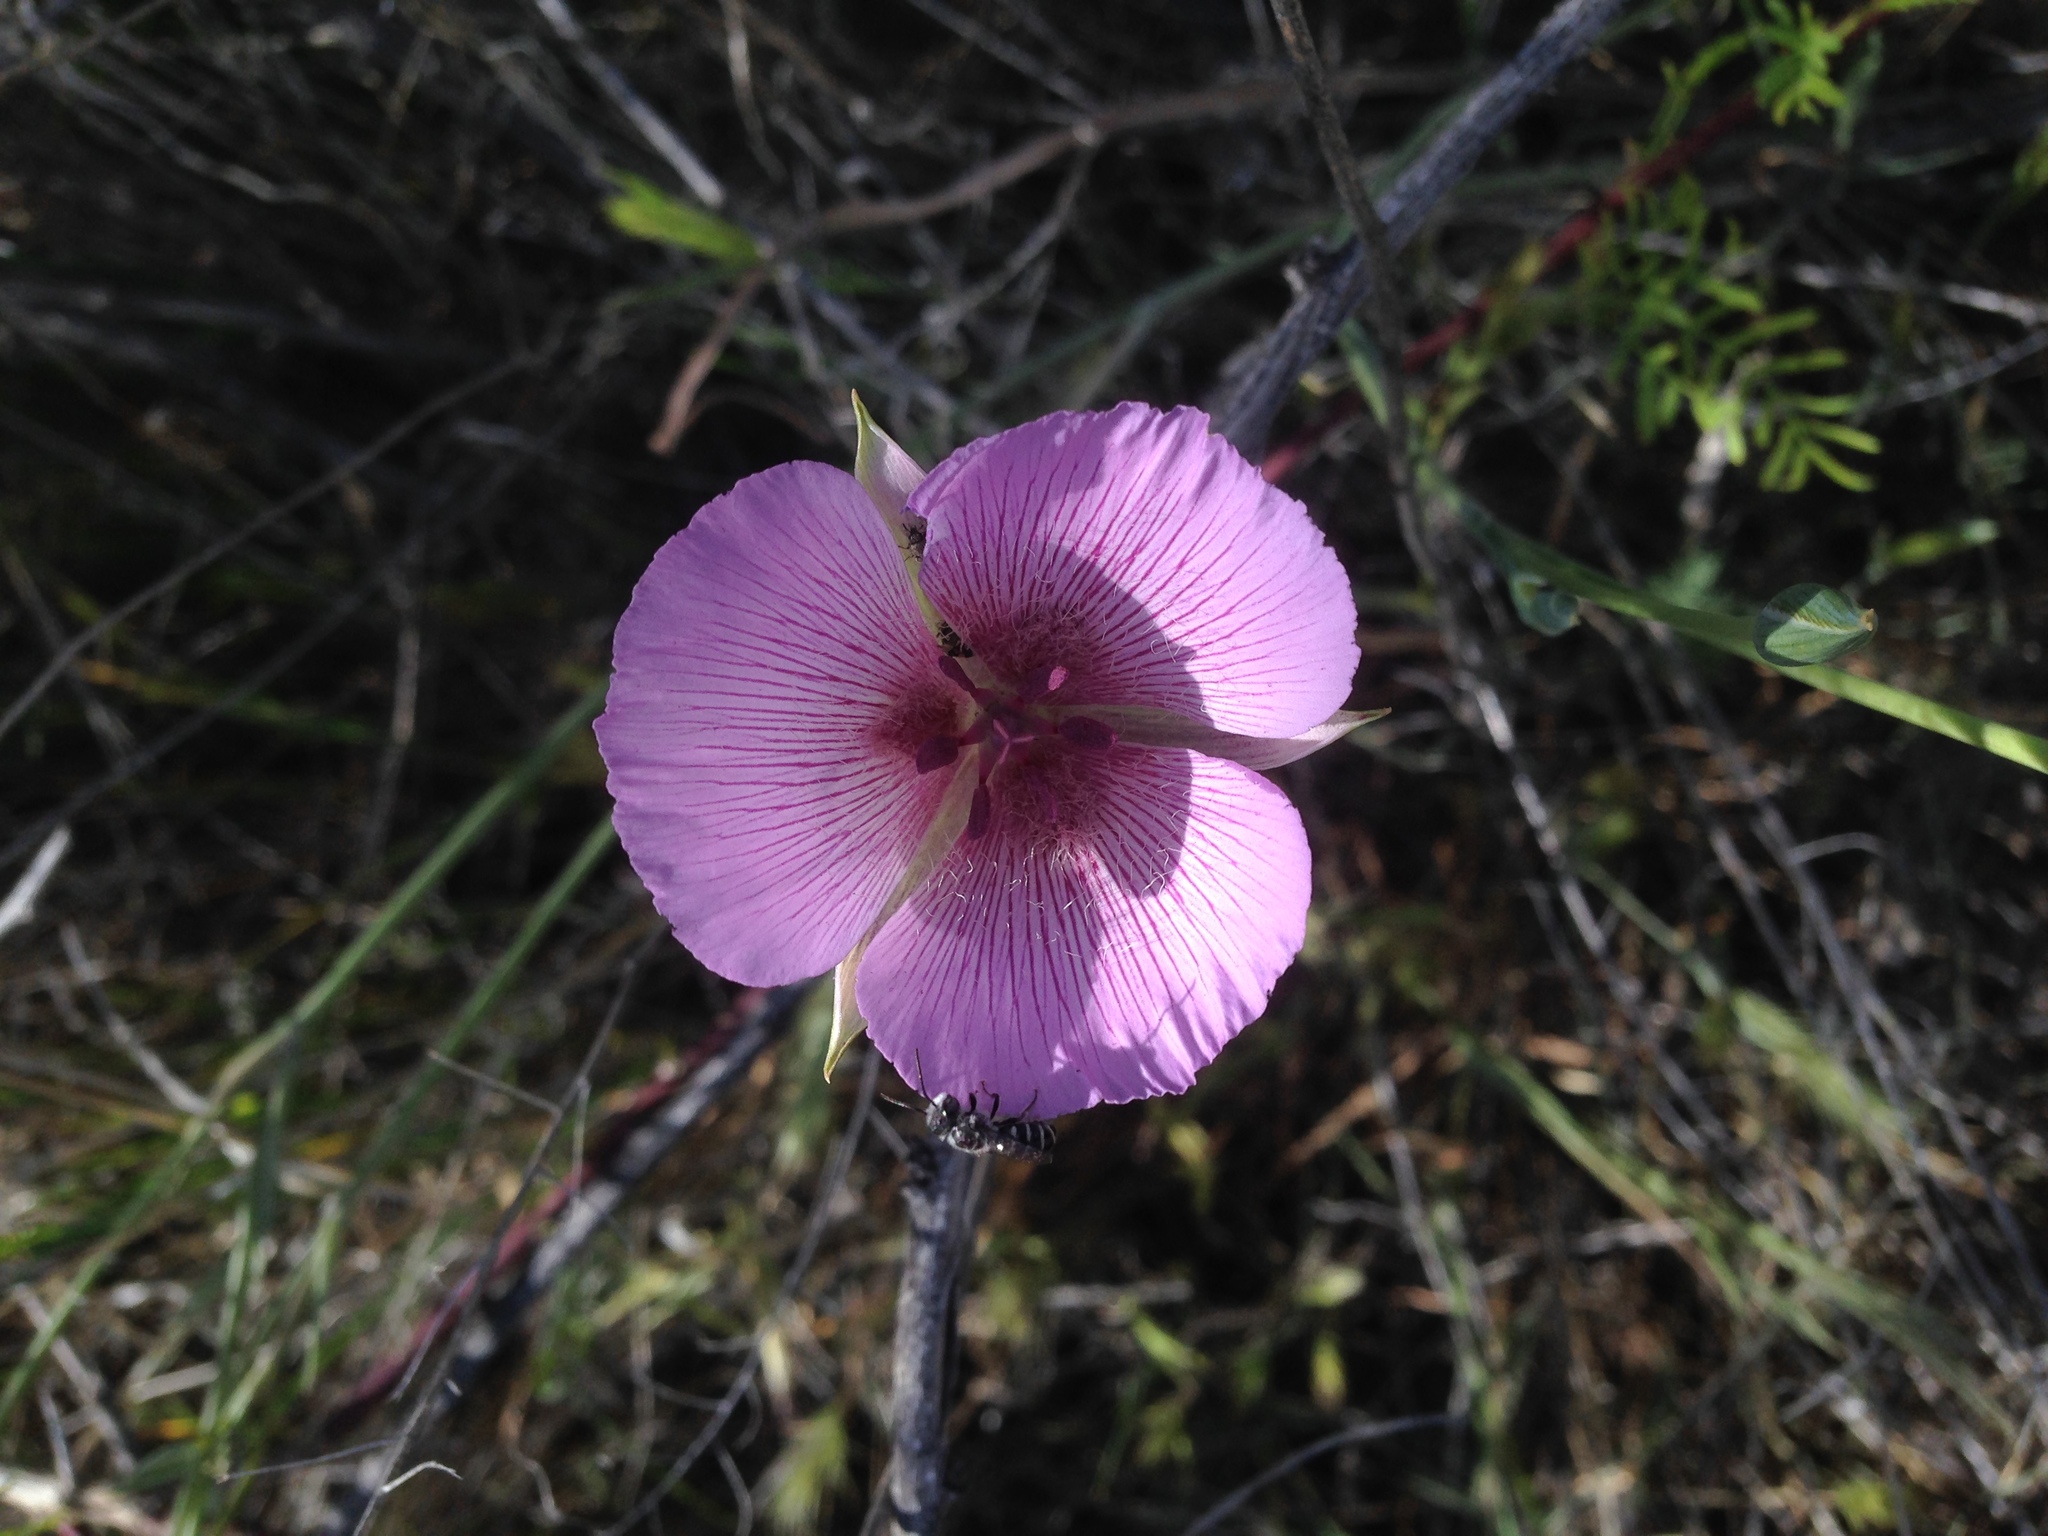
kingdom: Plantae
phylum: Tracheophyta
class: Liliopsida
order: Liliales
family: Liliaceae
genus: Calochortus
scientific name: Calochortus striatus
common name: Alkali mariposa-lily
